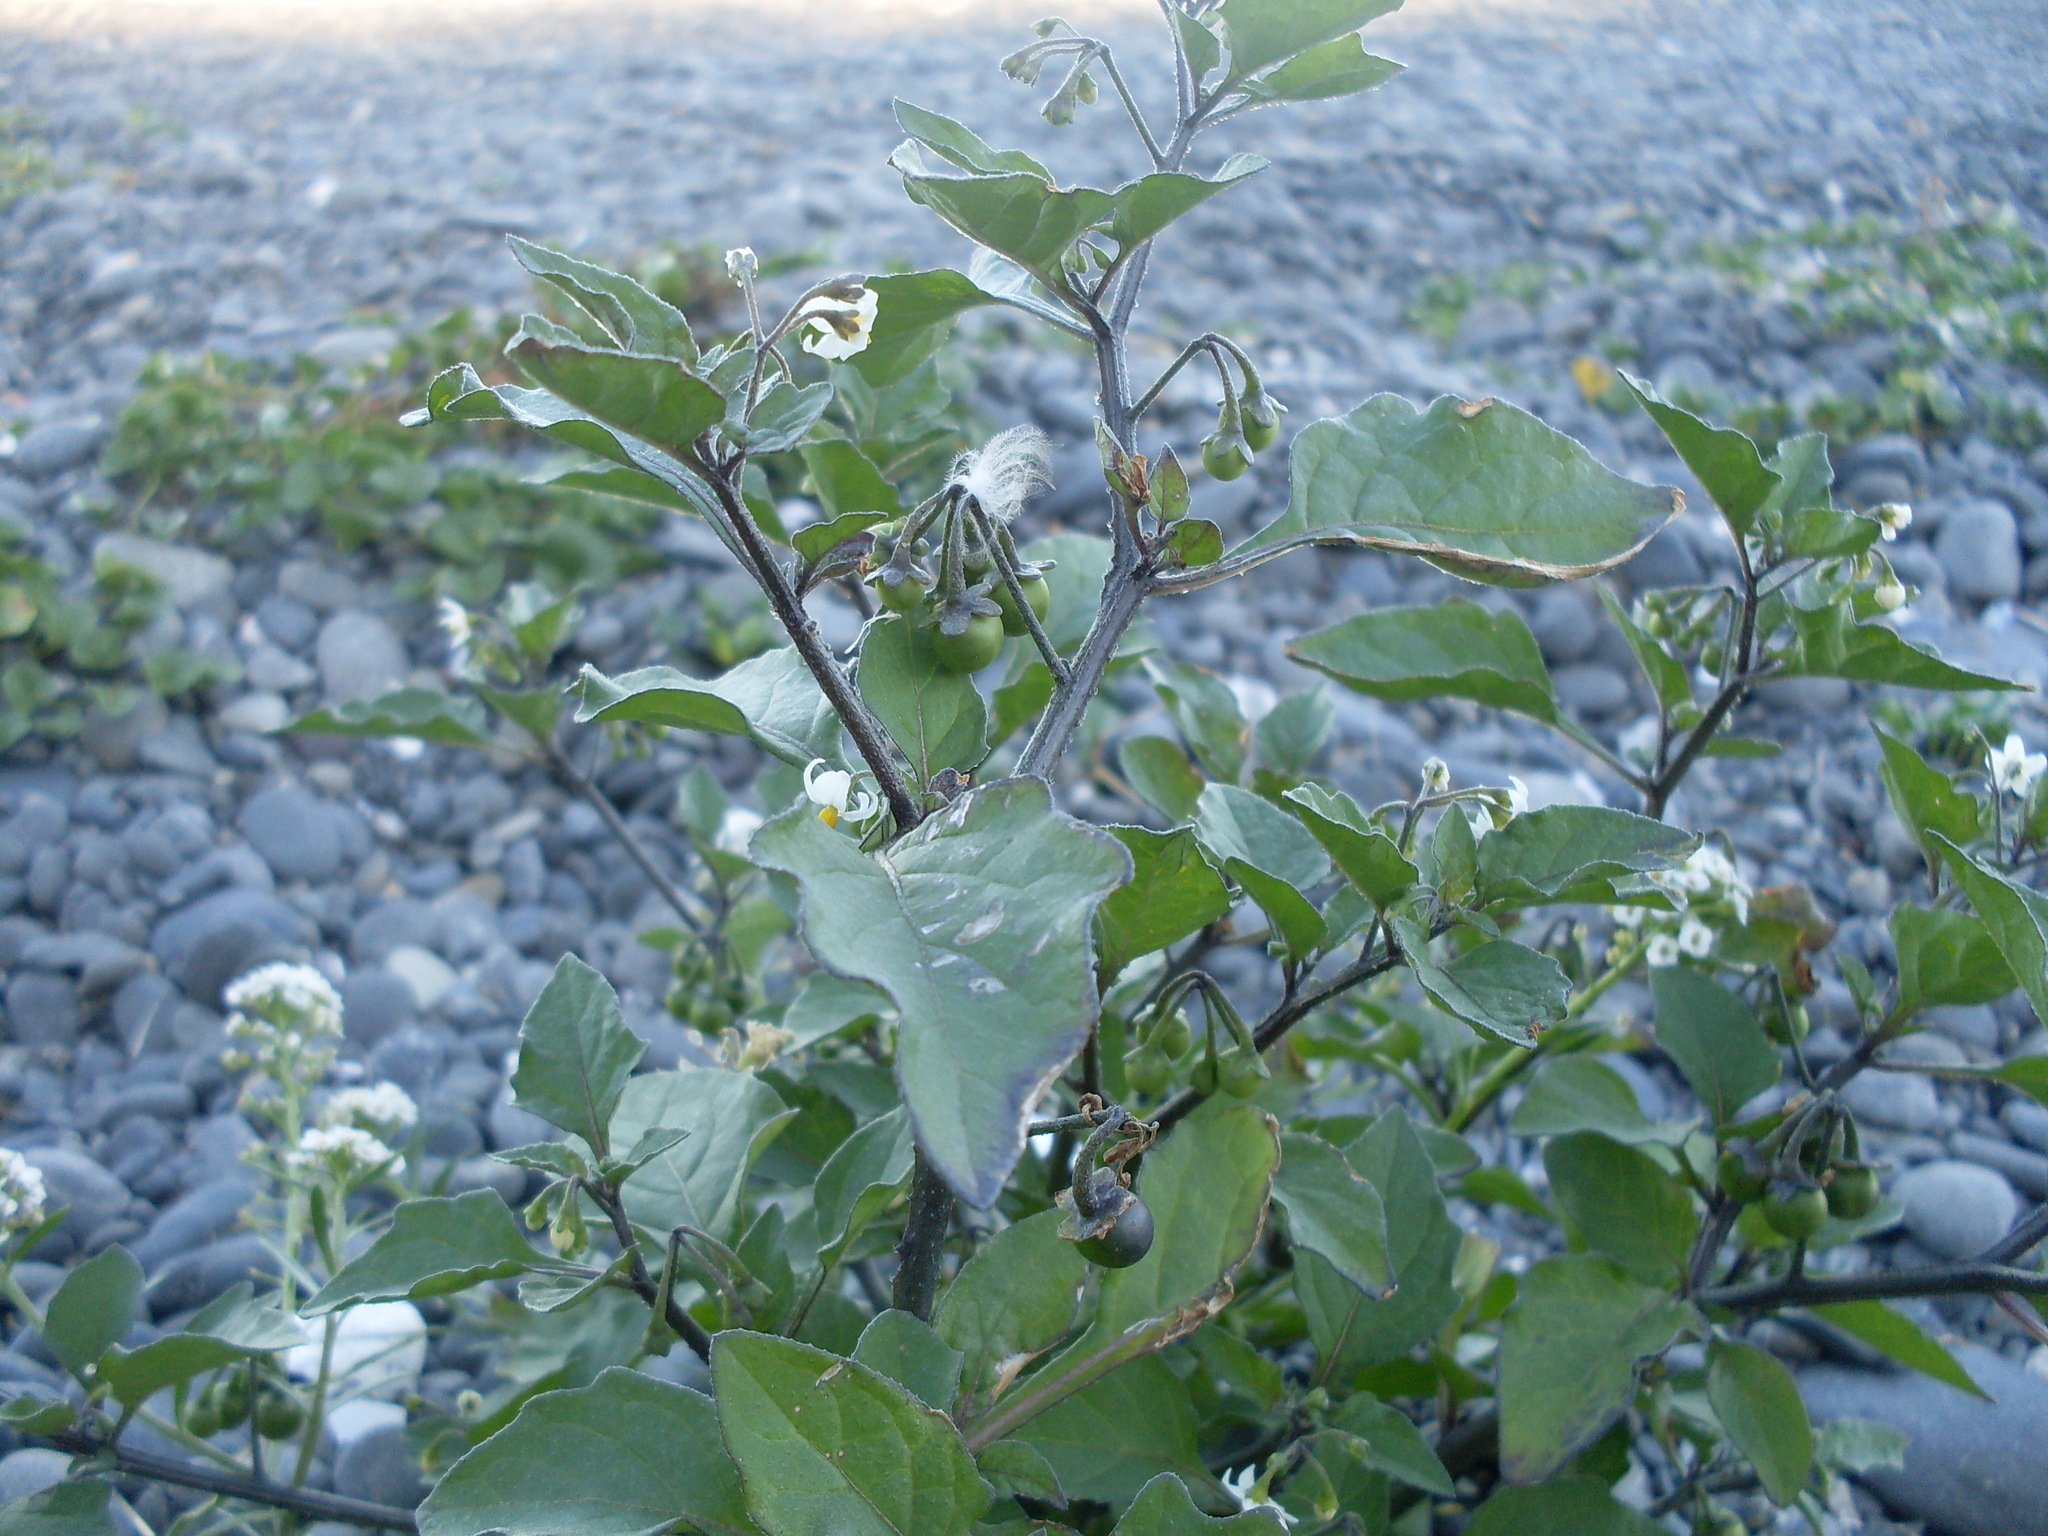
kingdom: Plantae
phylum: Tracheophyta
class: Magnoliopsida
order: Solanales
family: Solanaceae
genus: Solanum
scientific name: Solanum nigrum
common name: Black nightshade
